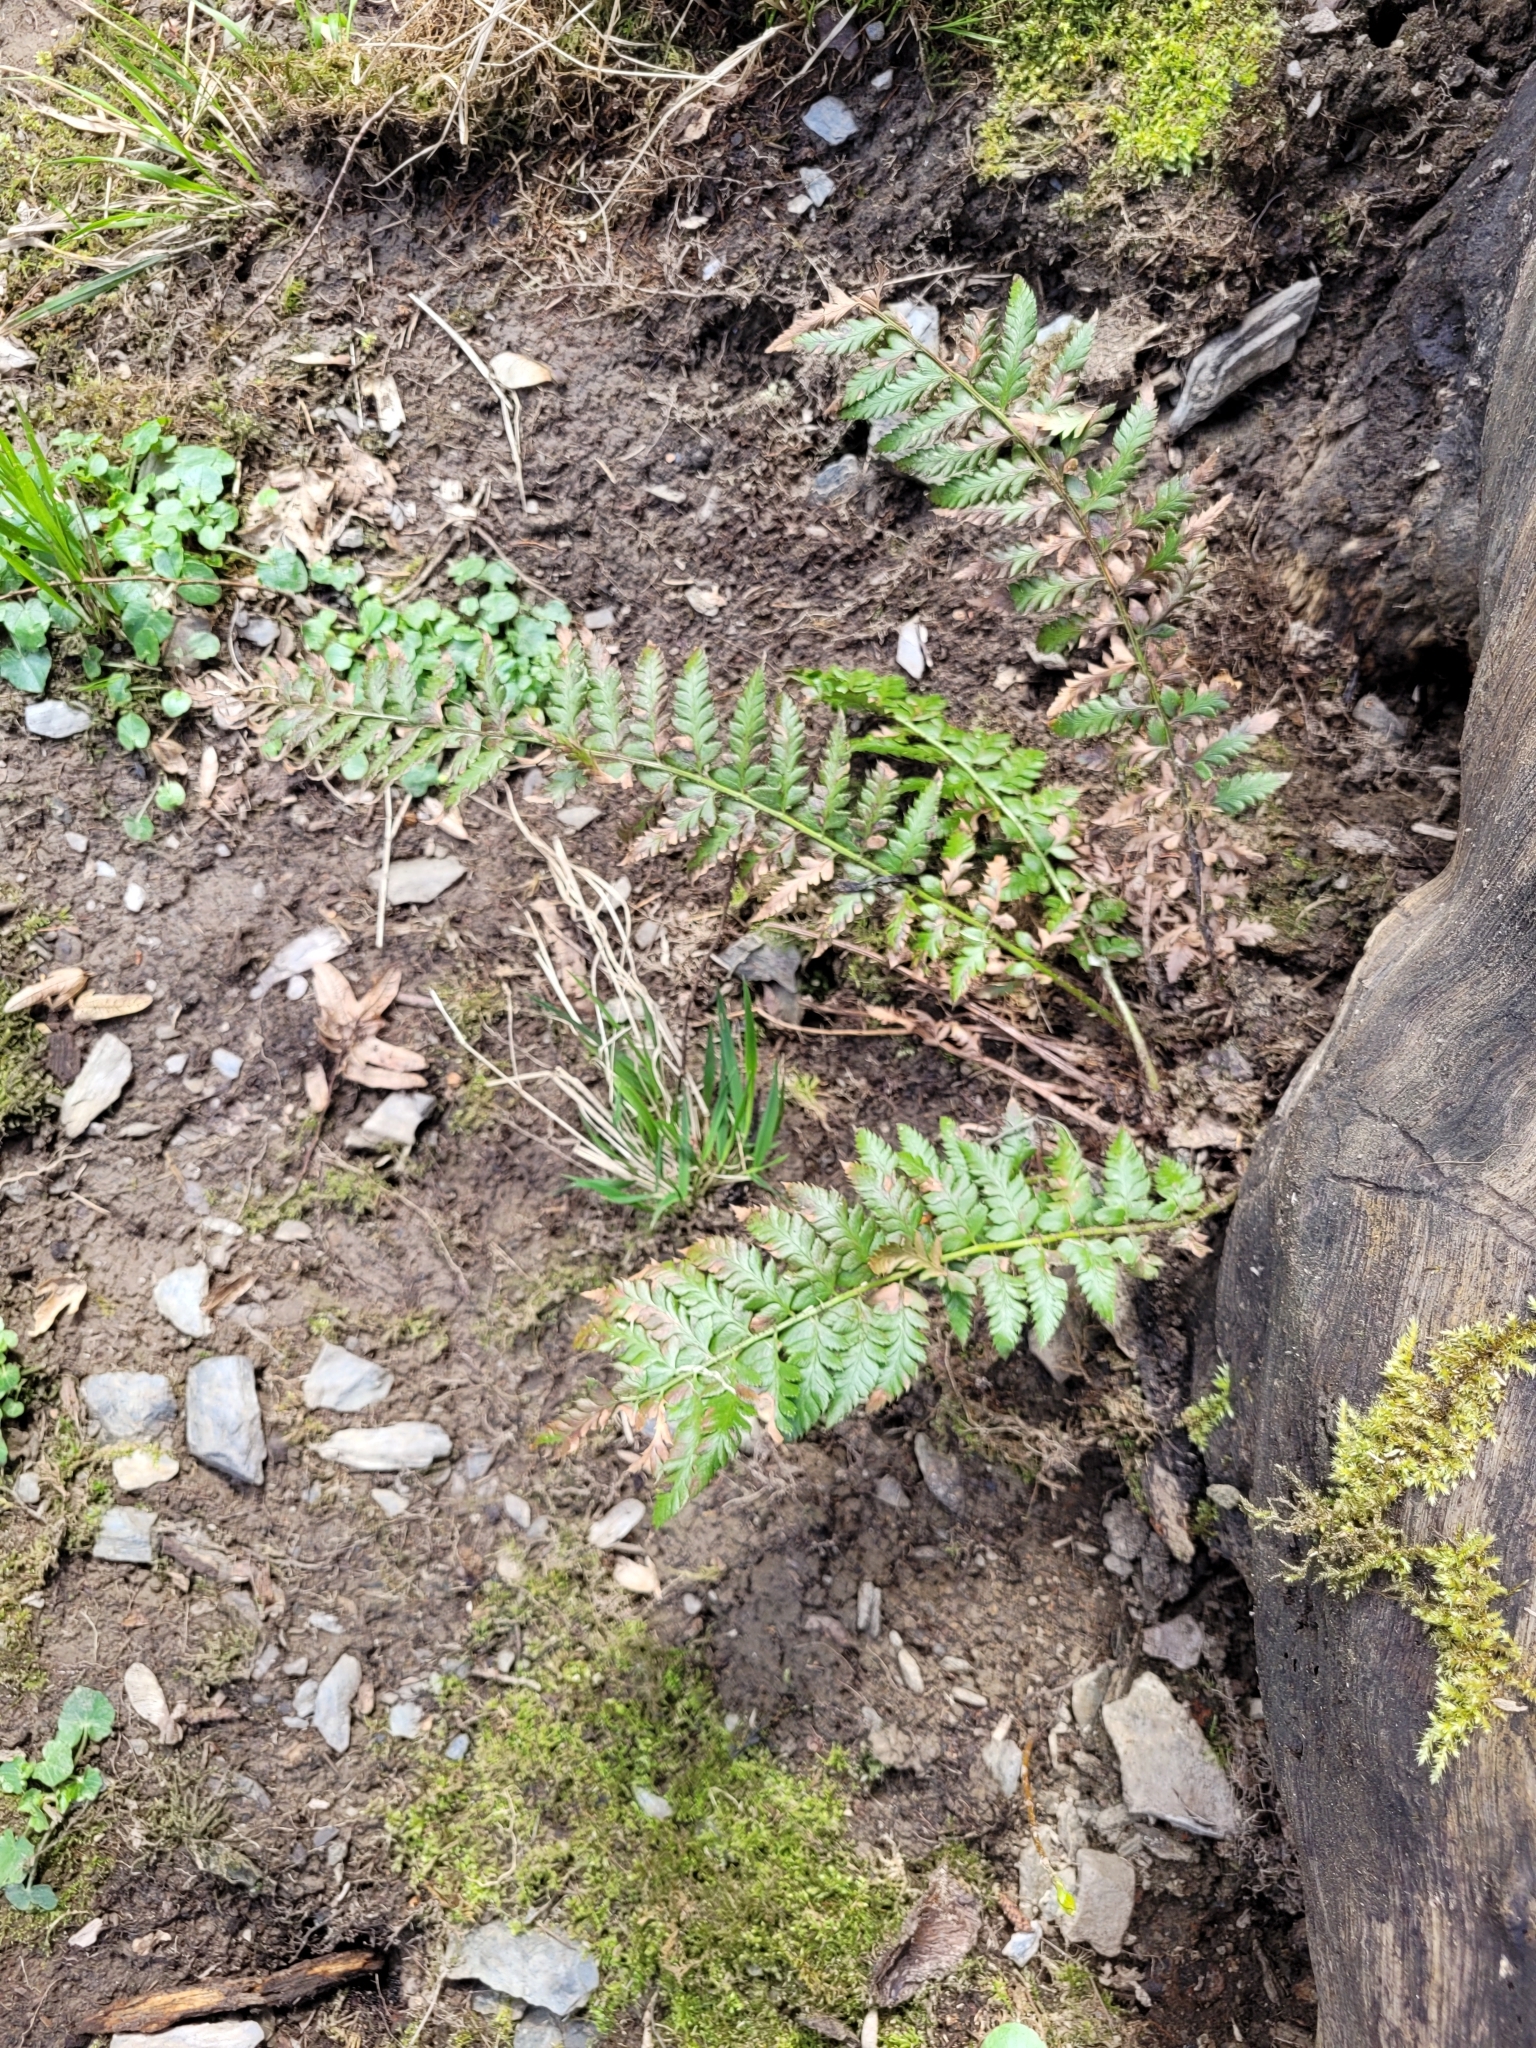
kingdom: Plantae
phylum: Tracheophyta
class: Polypodiopsida
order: Polypodiales
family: Dryopteridaceae
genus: Polystichum
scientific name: Polystichum aculeatum
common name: Hard shield-fern
